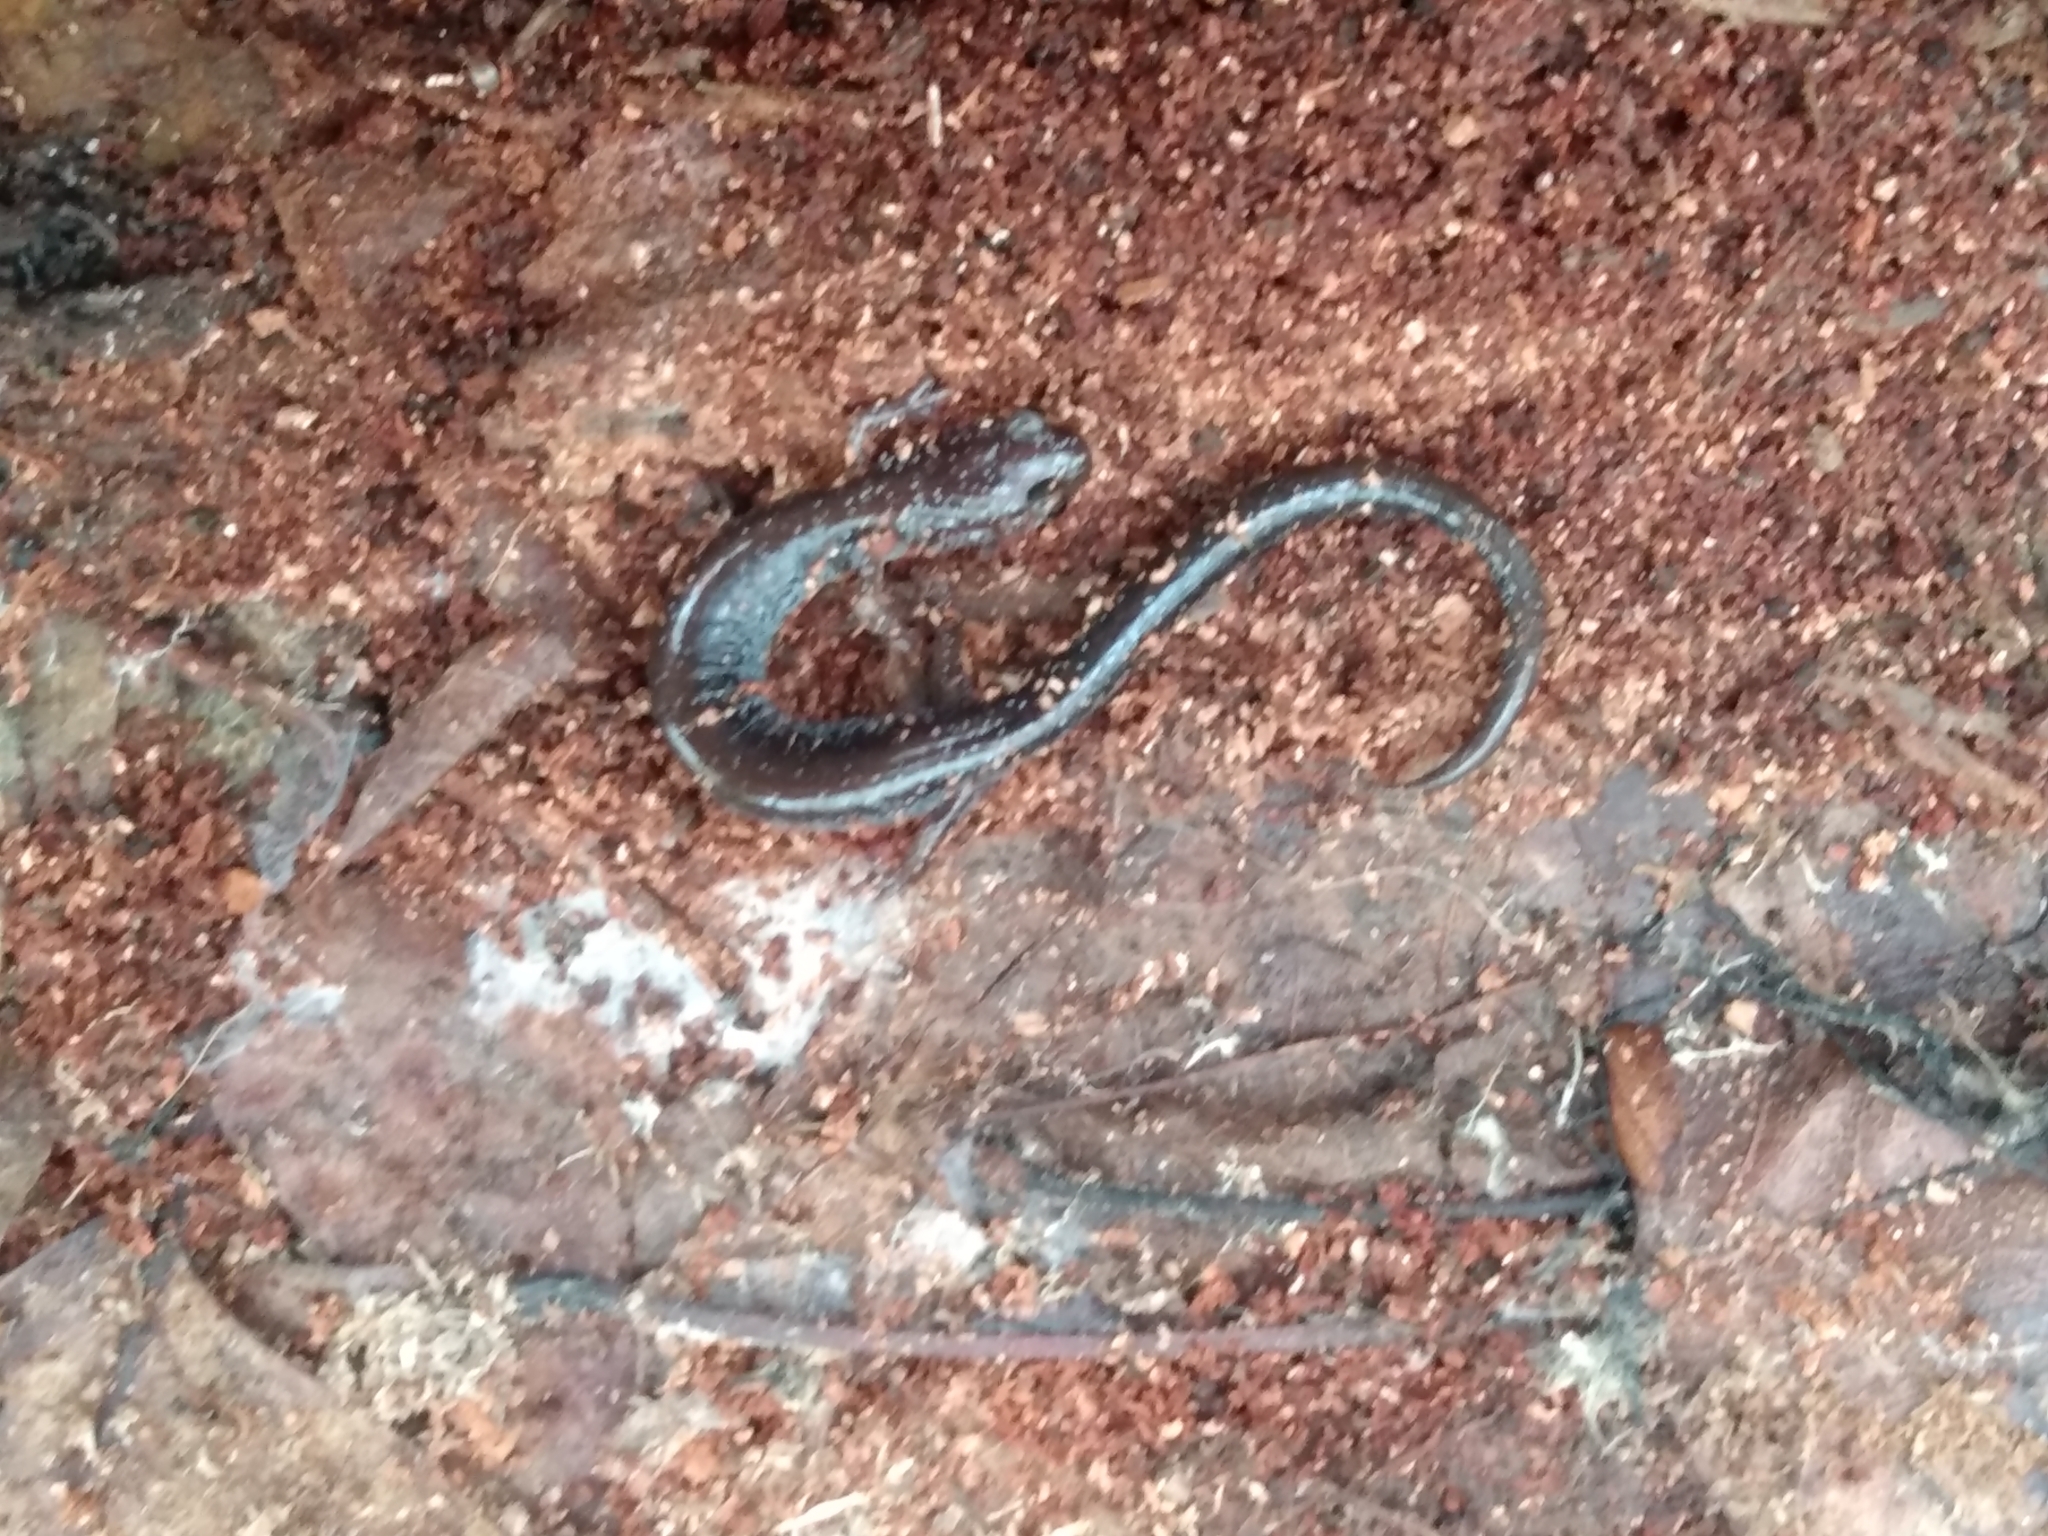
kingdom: Animalia
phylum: Chordata
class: Amphibia
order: Caudata
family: Plethodontidae
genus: Plethodon
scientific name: Plethodon cinereus
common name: Redback salamander
